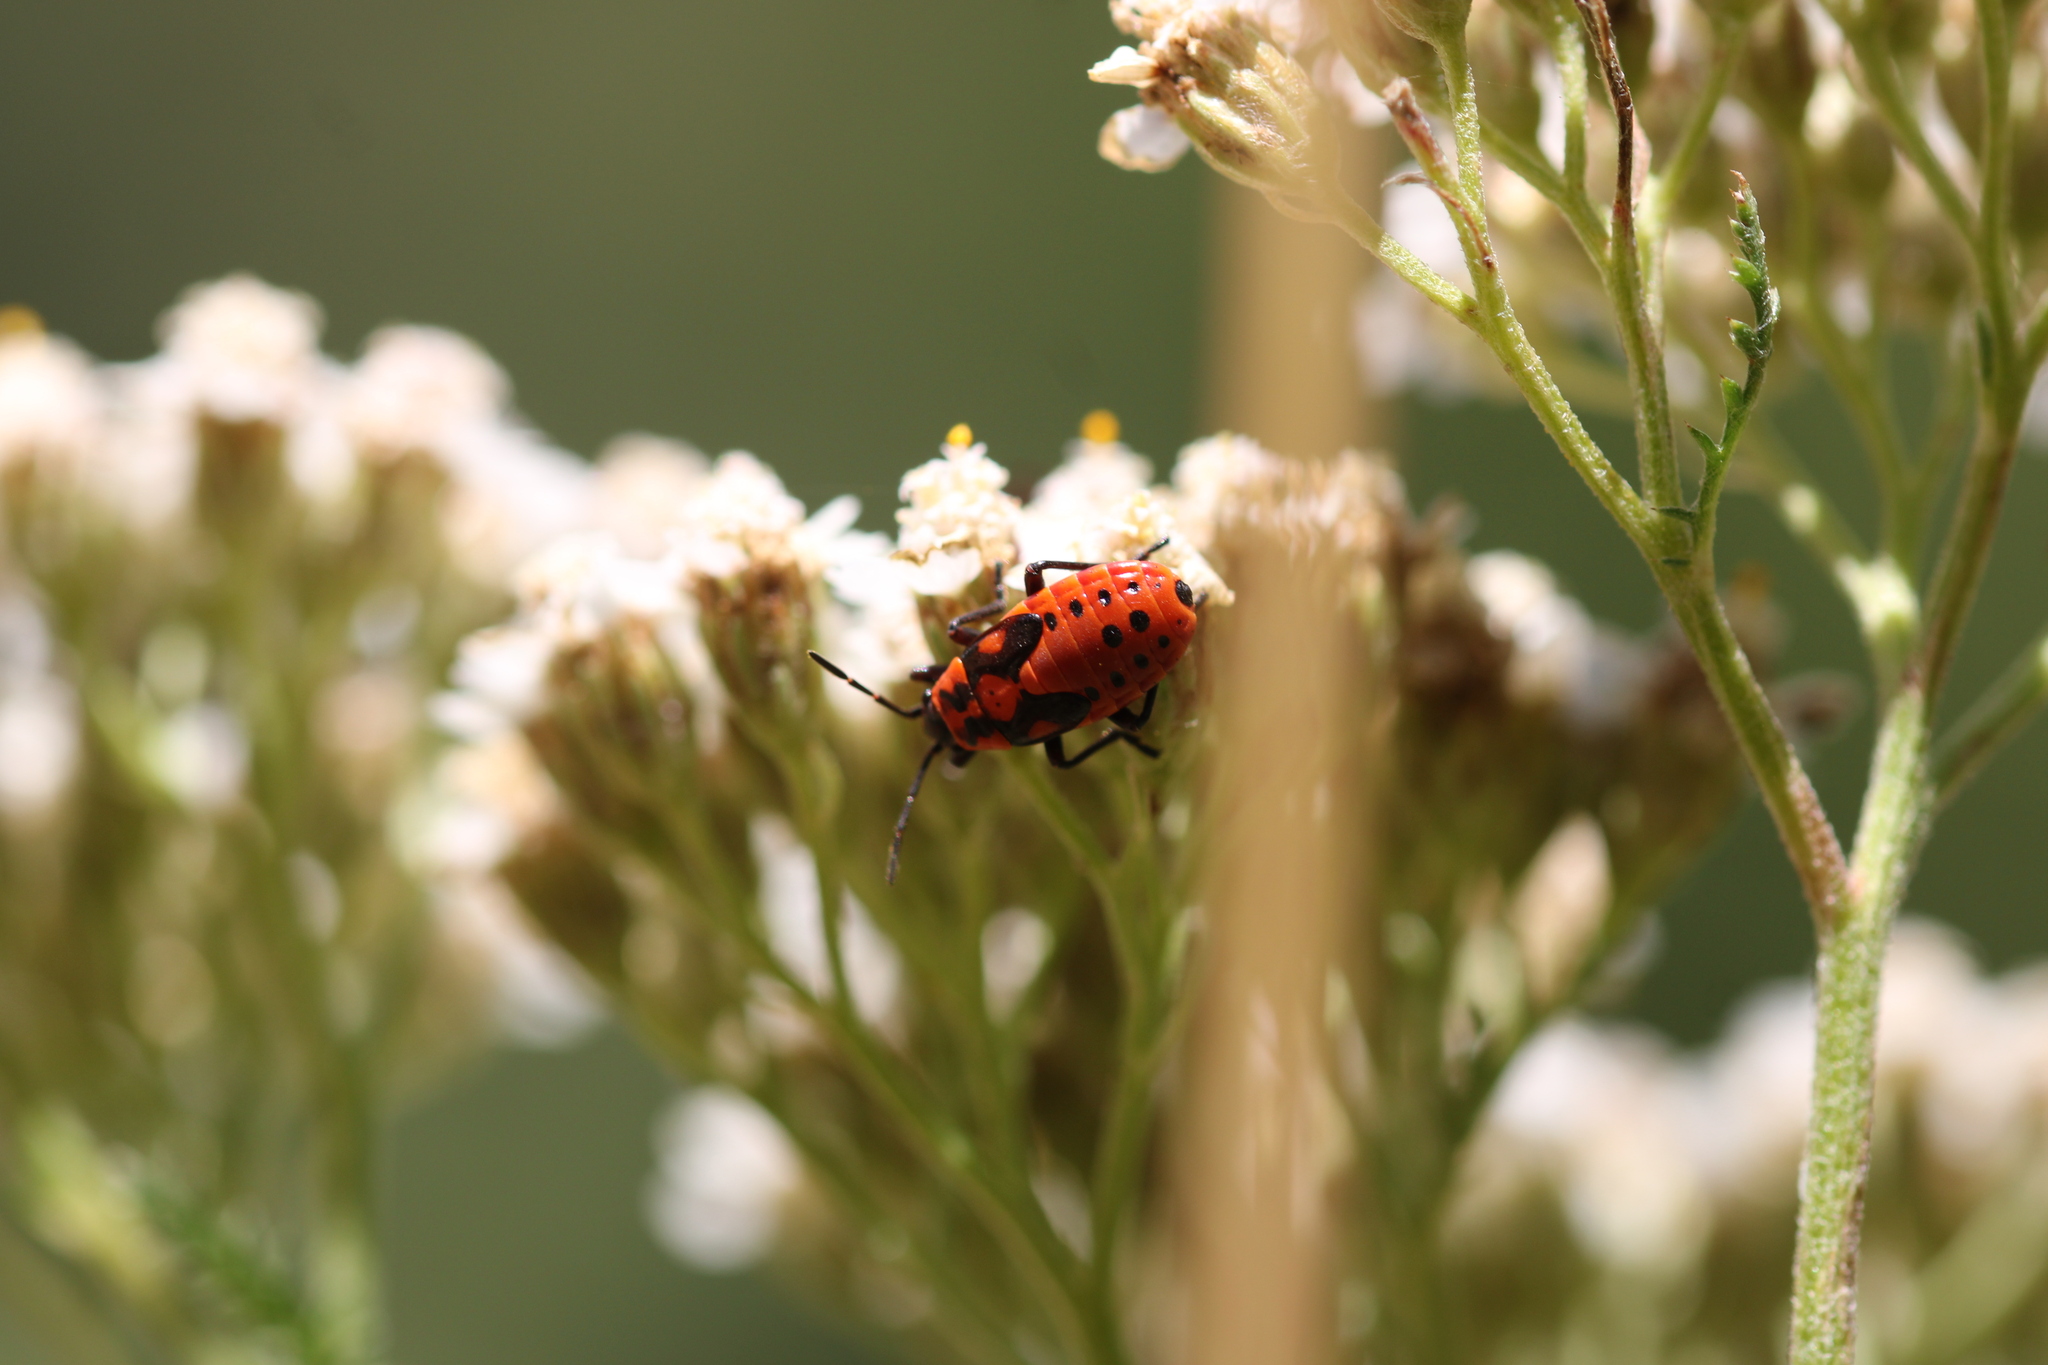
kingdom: Animalia
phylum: Arthropoda
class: Insecta
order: Hemiptera
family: Lygaeidae
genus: Spilostethus
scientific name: Spilostethus saxatilis
